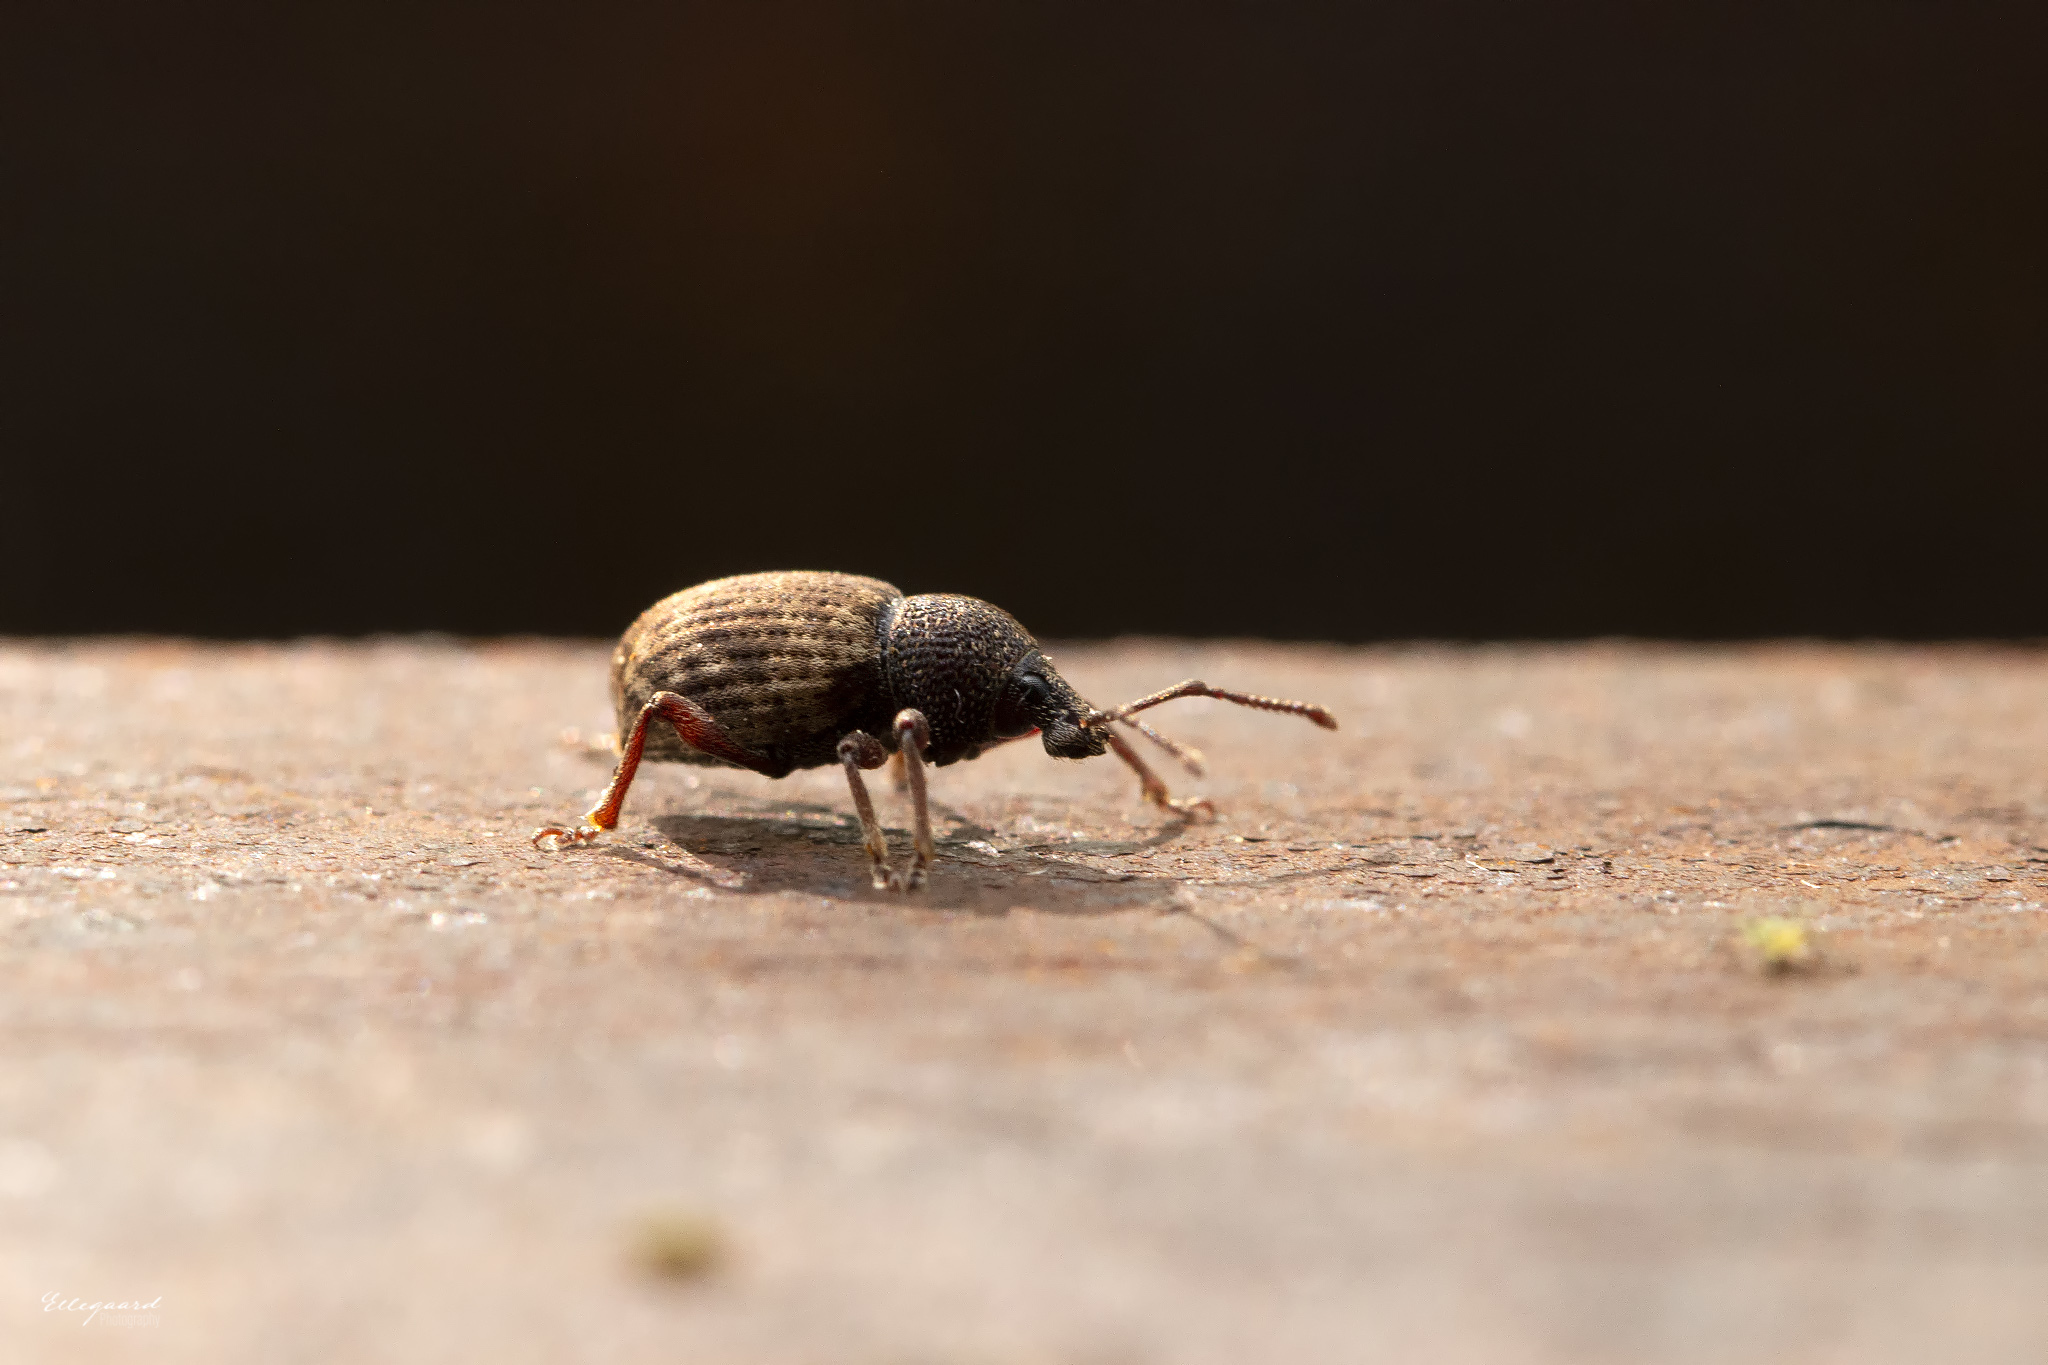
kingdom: Animalia
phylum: Arthropoda
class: Insecta
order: Coleoptera
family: Curculionidae
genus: Otiorhynchus
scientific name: Otiorhynchus raucus
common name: Weevil
